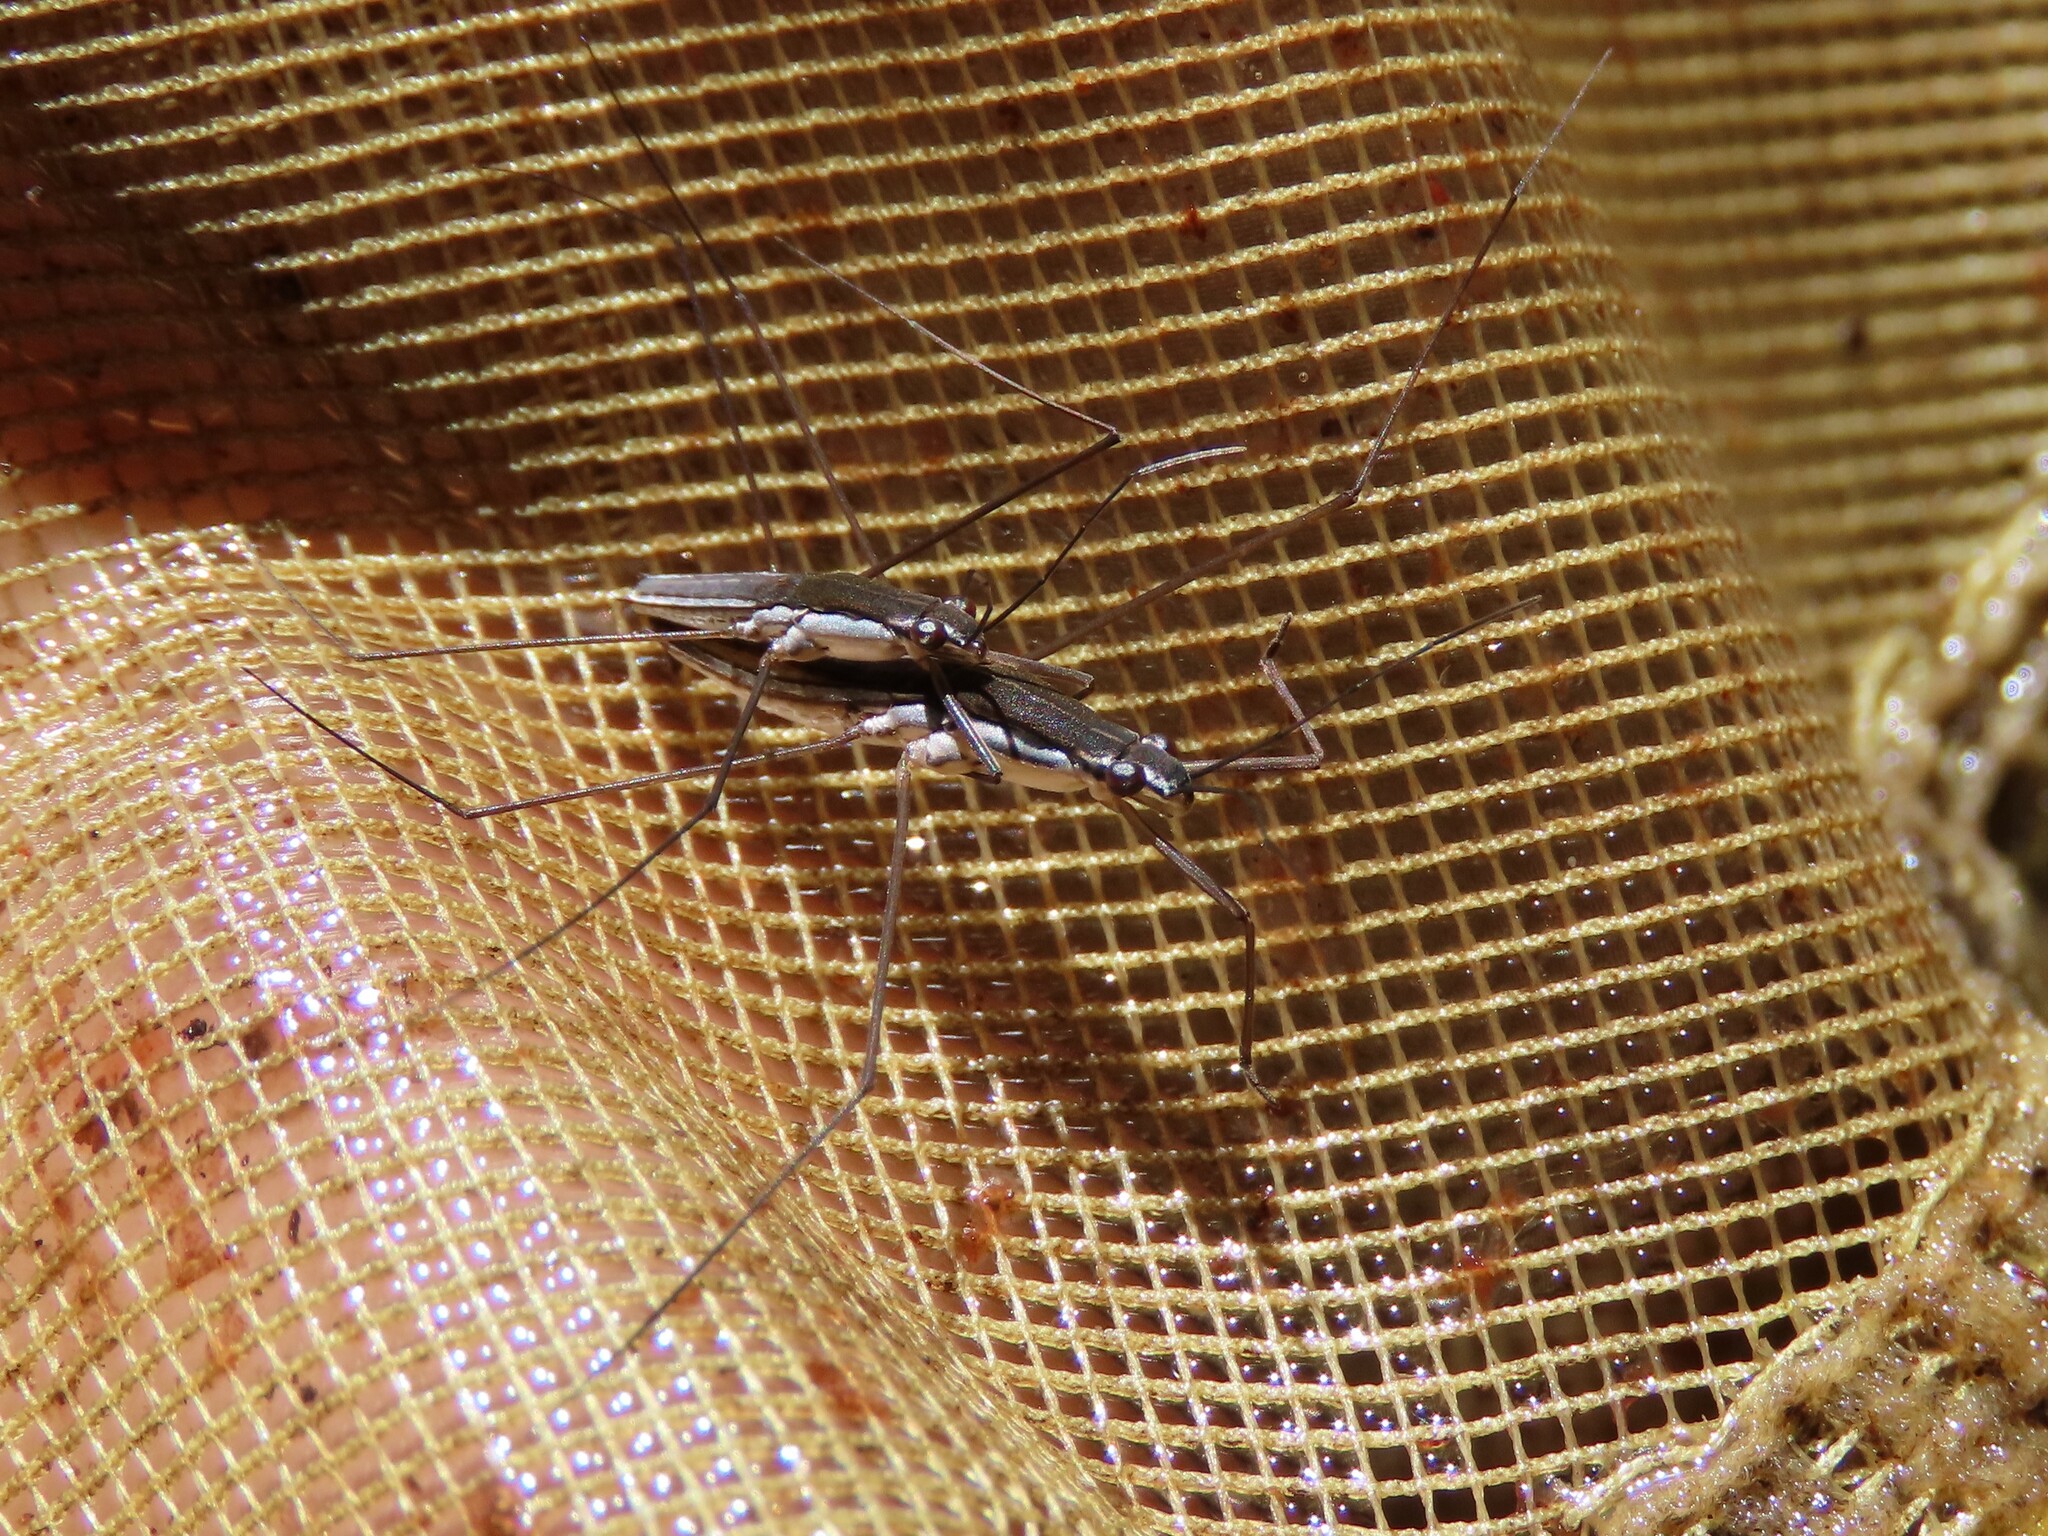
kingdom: Animalia
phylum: Arthropoda
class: Insecta
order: Hemiptera
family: Gerridae
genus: Limnoporus
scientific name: Limnoporus canaliculatus
